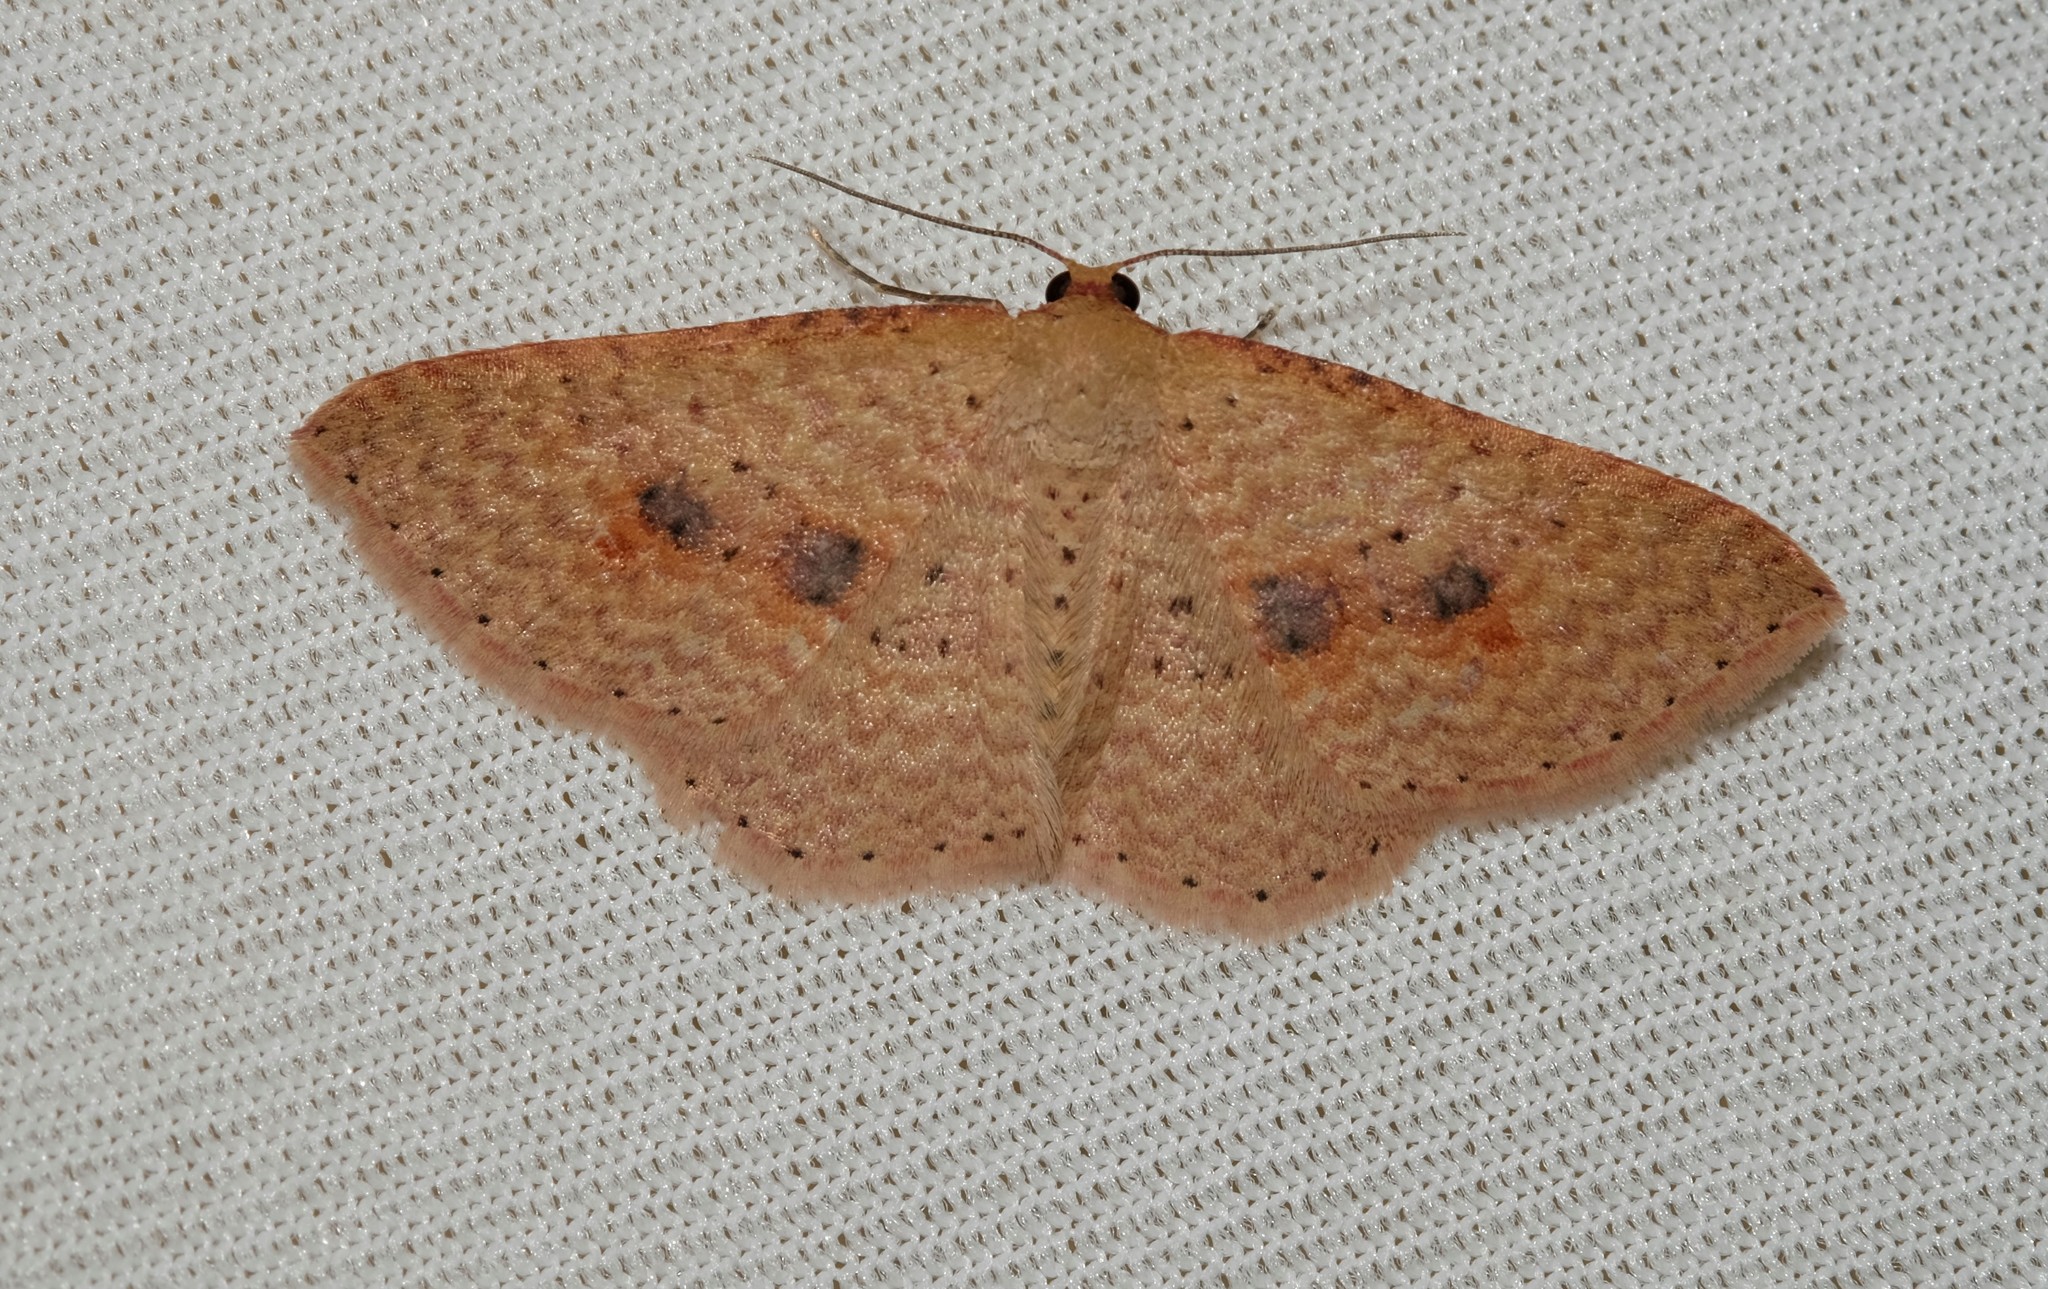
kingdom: Animalia
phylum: Arthropoda
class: Insecta
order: Lepidoptera
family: Geometridae
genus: Epicyme
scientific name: Epicyme rubropunctaria
